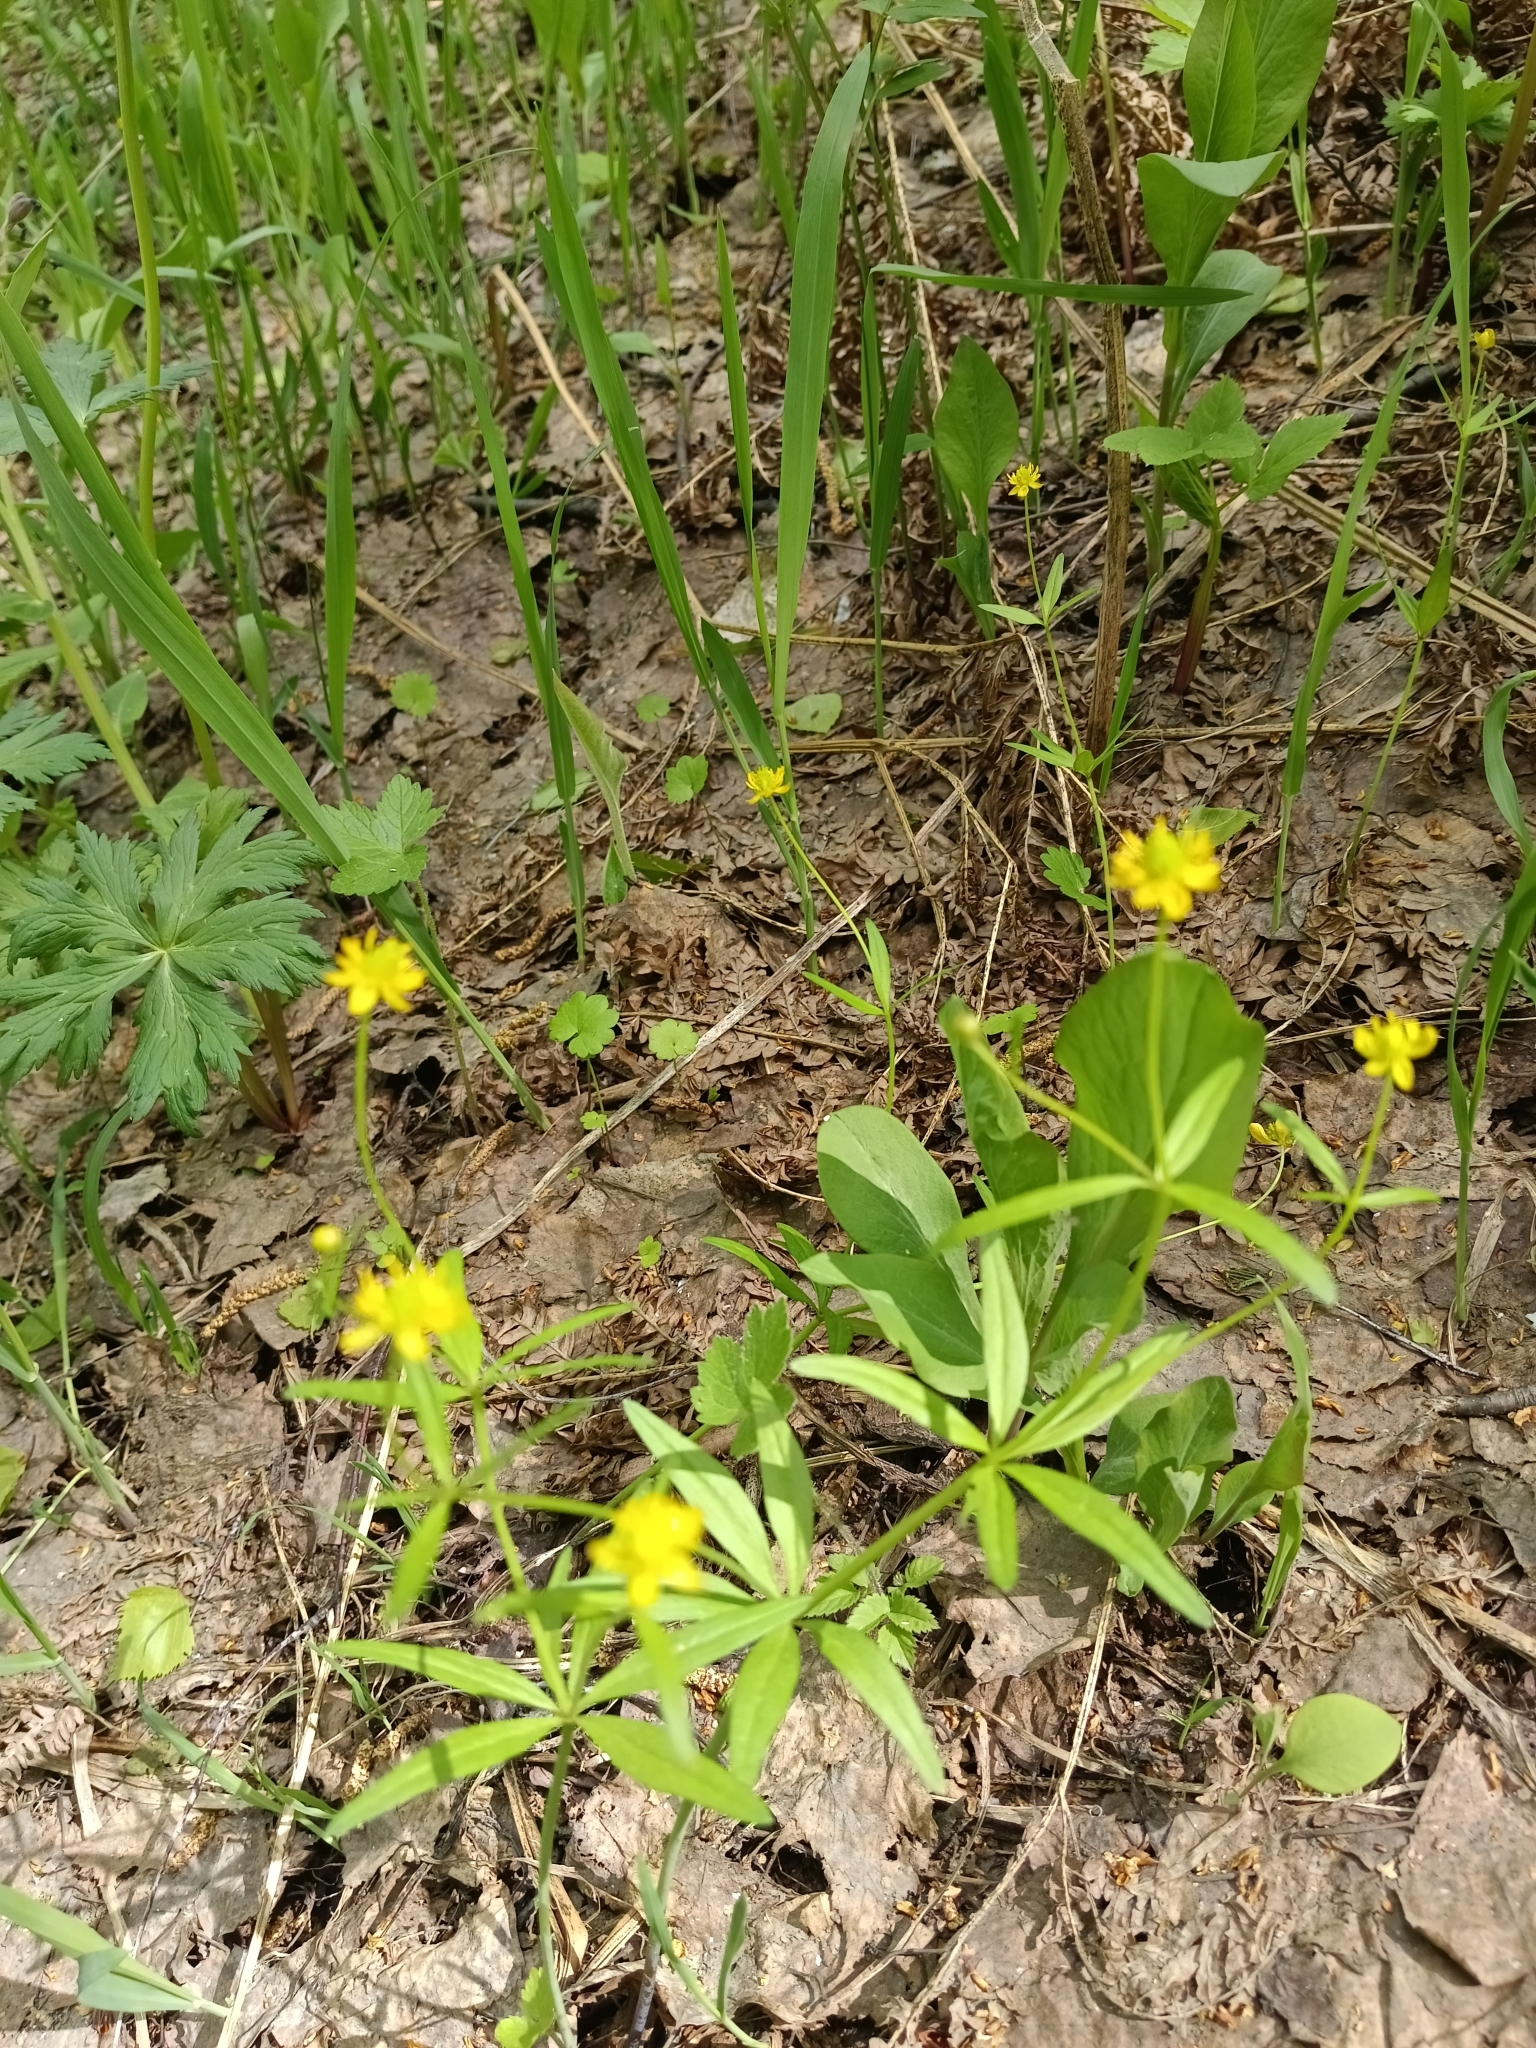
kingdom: Plantae
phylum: Tracheophyta
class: Magnoliopsida
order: Malpighiales
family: Violaceae
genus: Viola
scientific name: Viola uniflora
